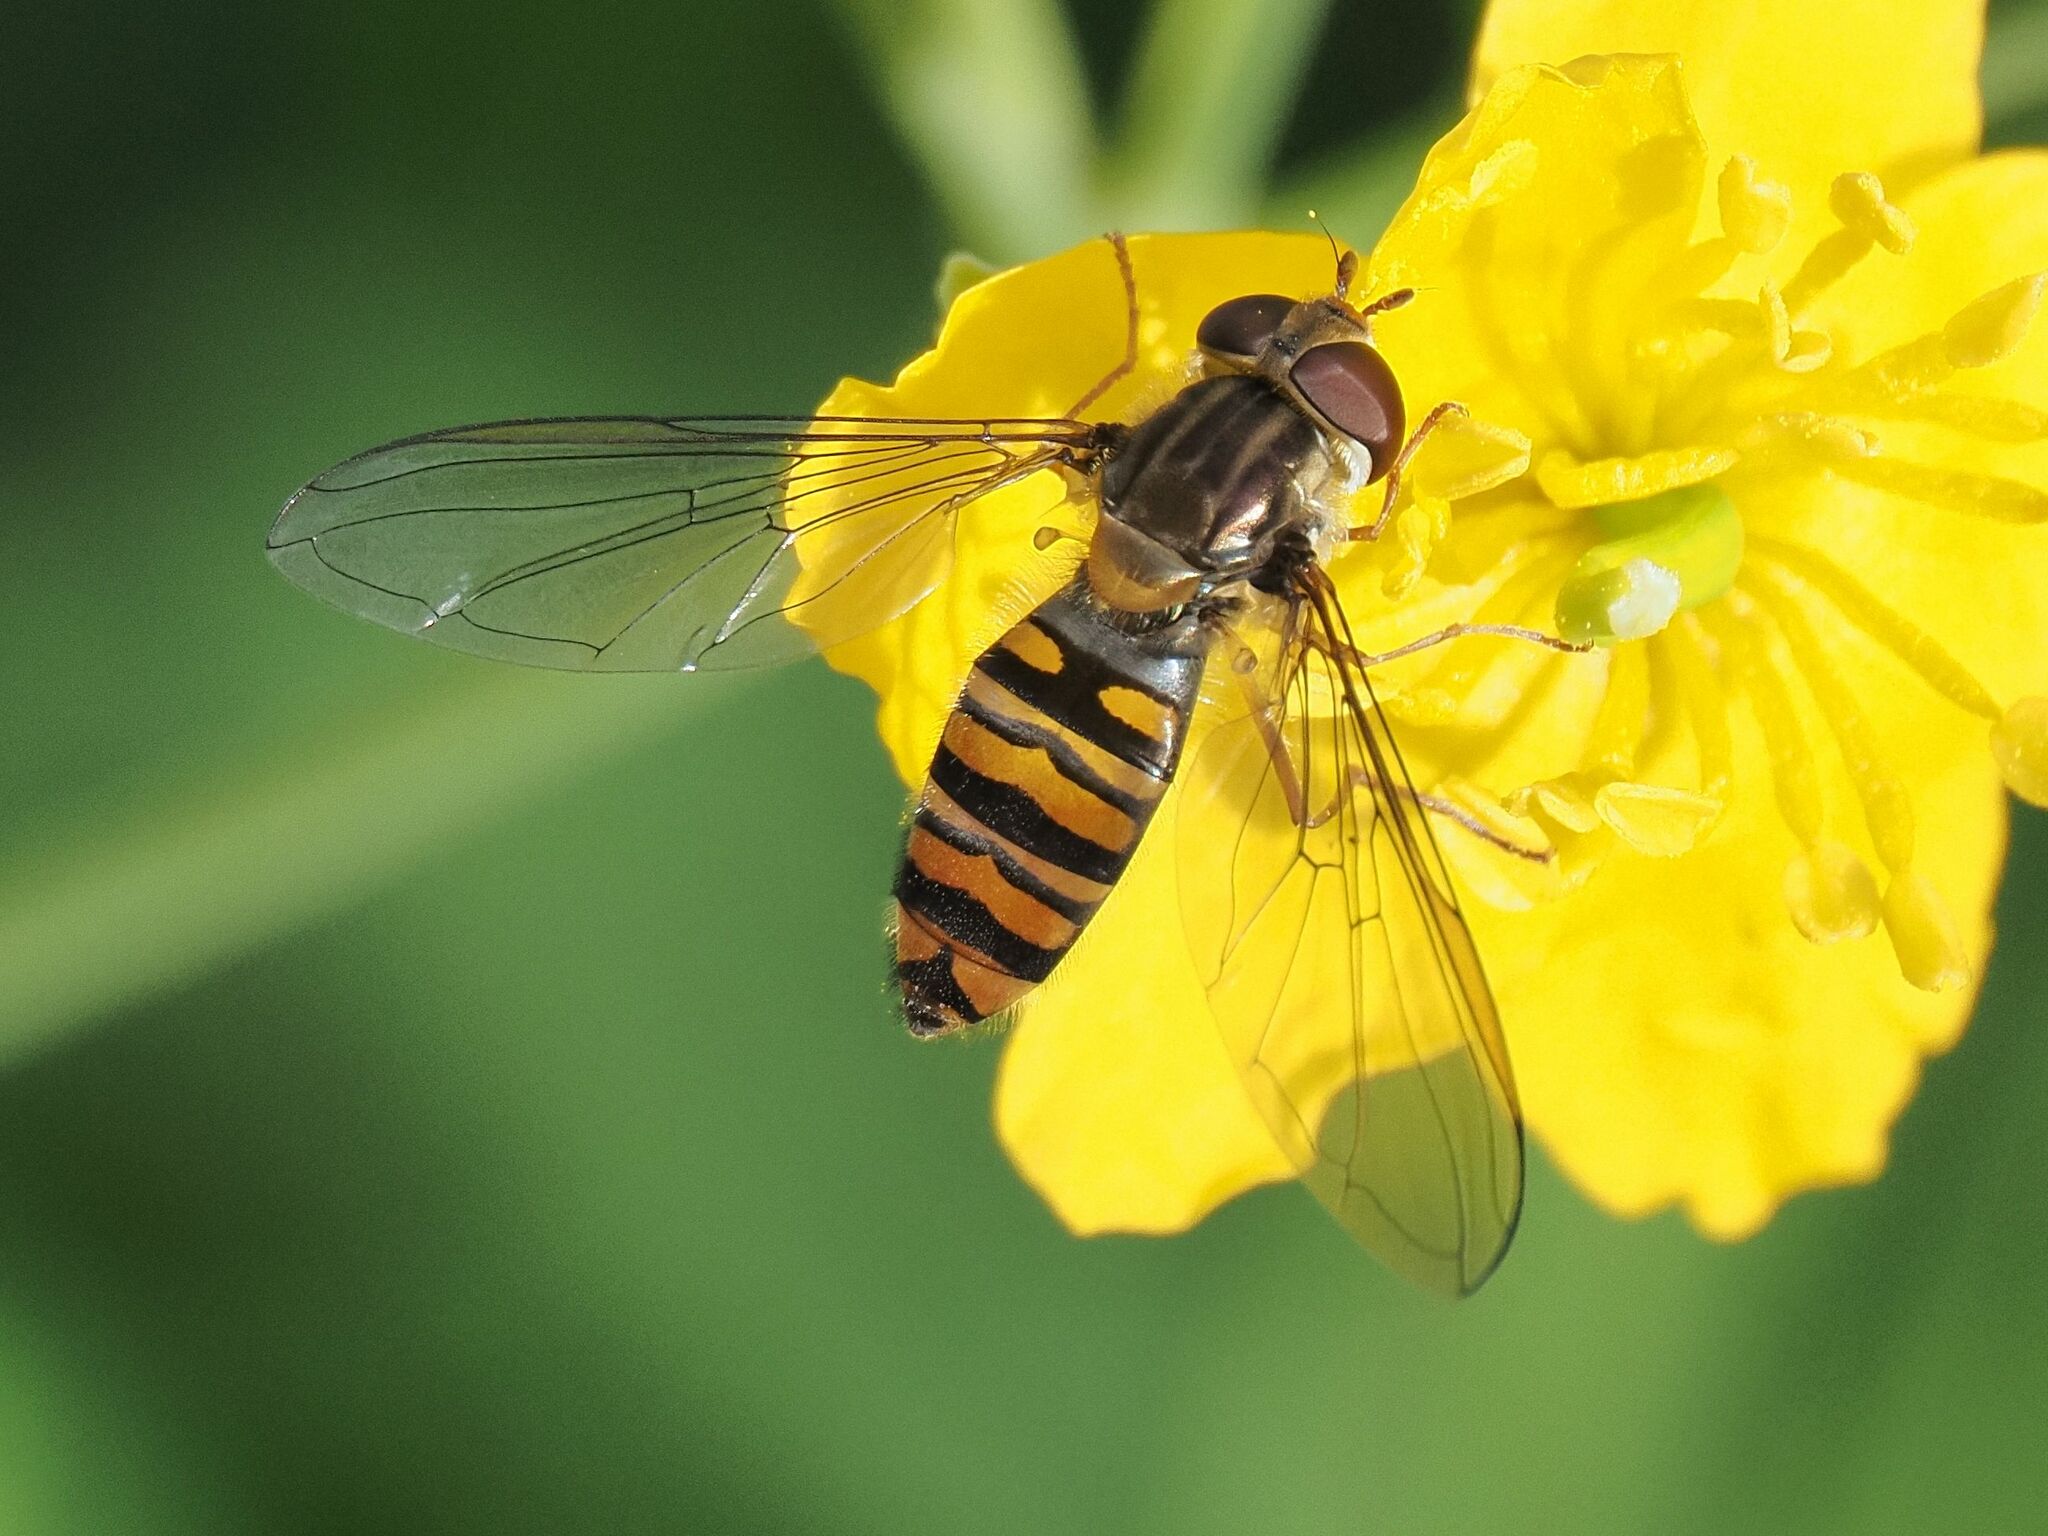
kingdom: Animalia
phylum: Arthropoda
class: Insecta
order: Diptera
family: Syrphidae
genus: Episyrphus
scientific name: Episyrphus balteatus
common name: Marmalade hoverfly
